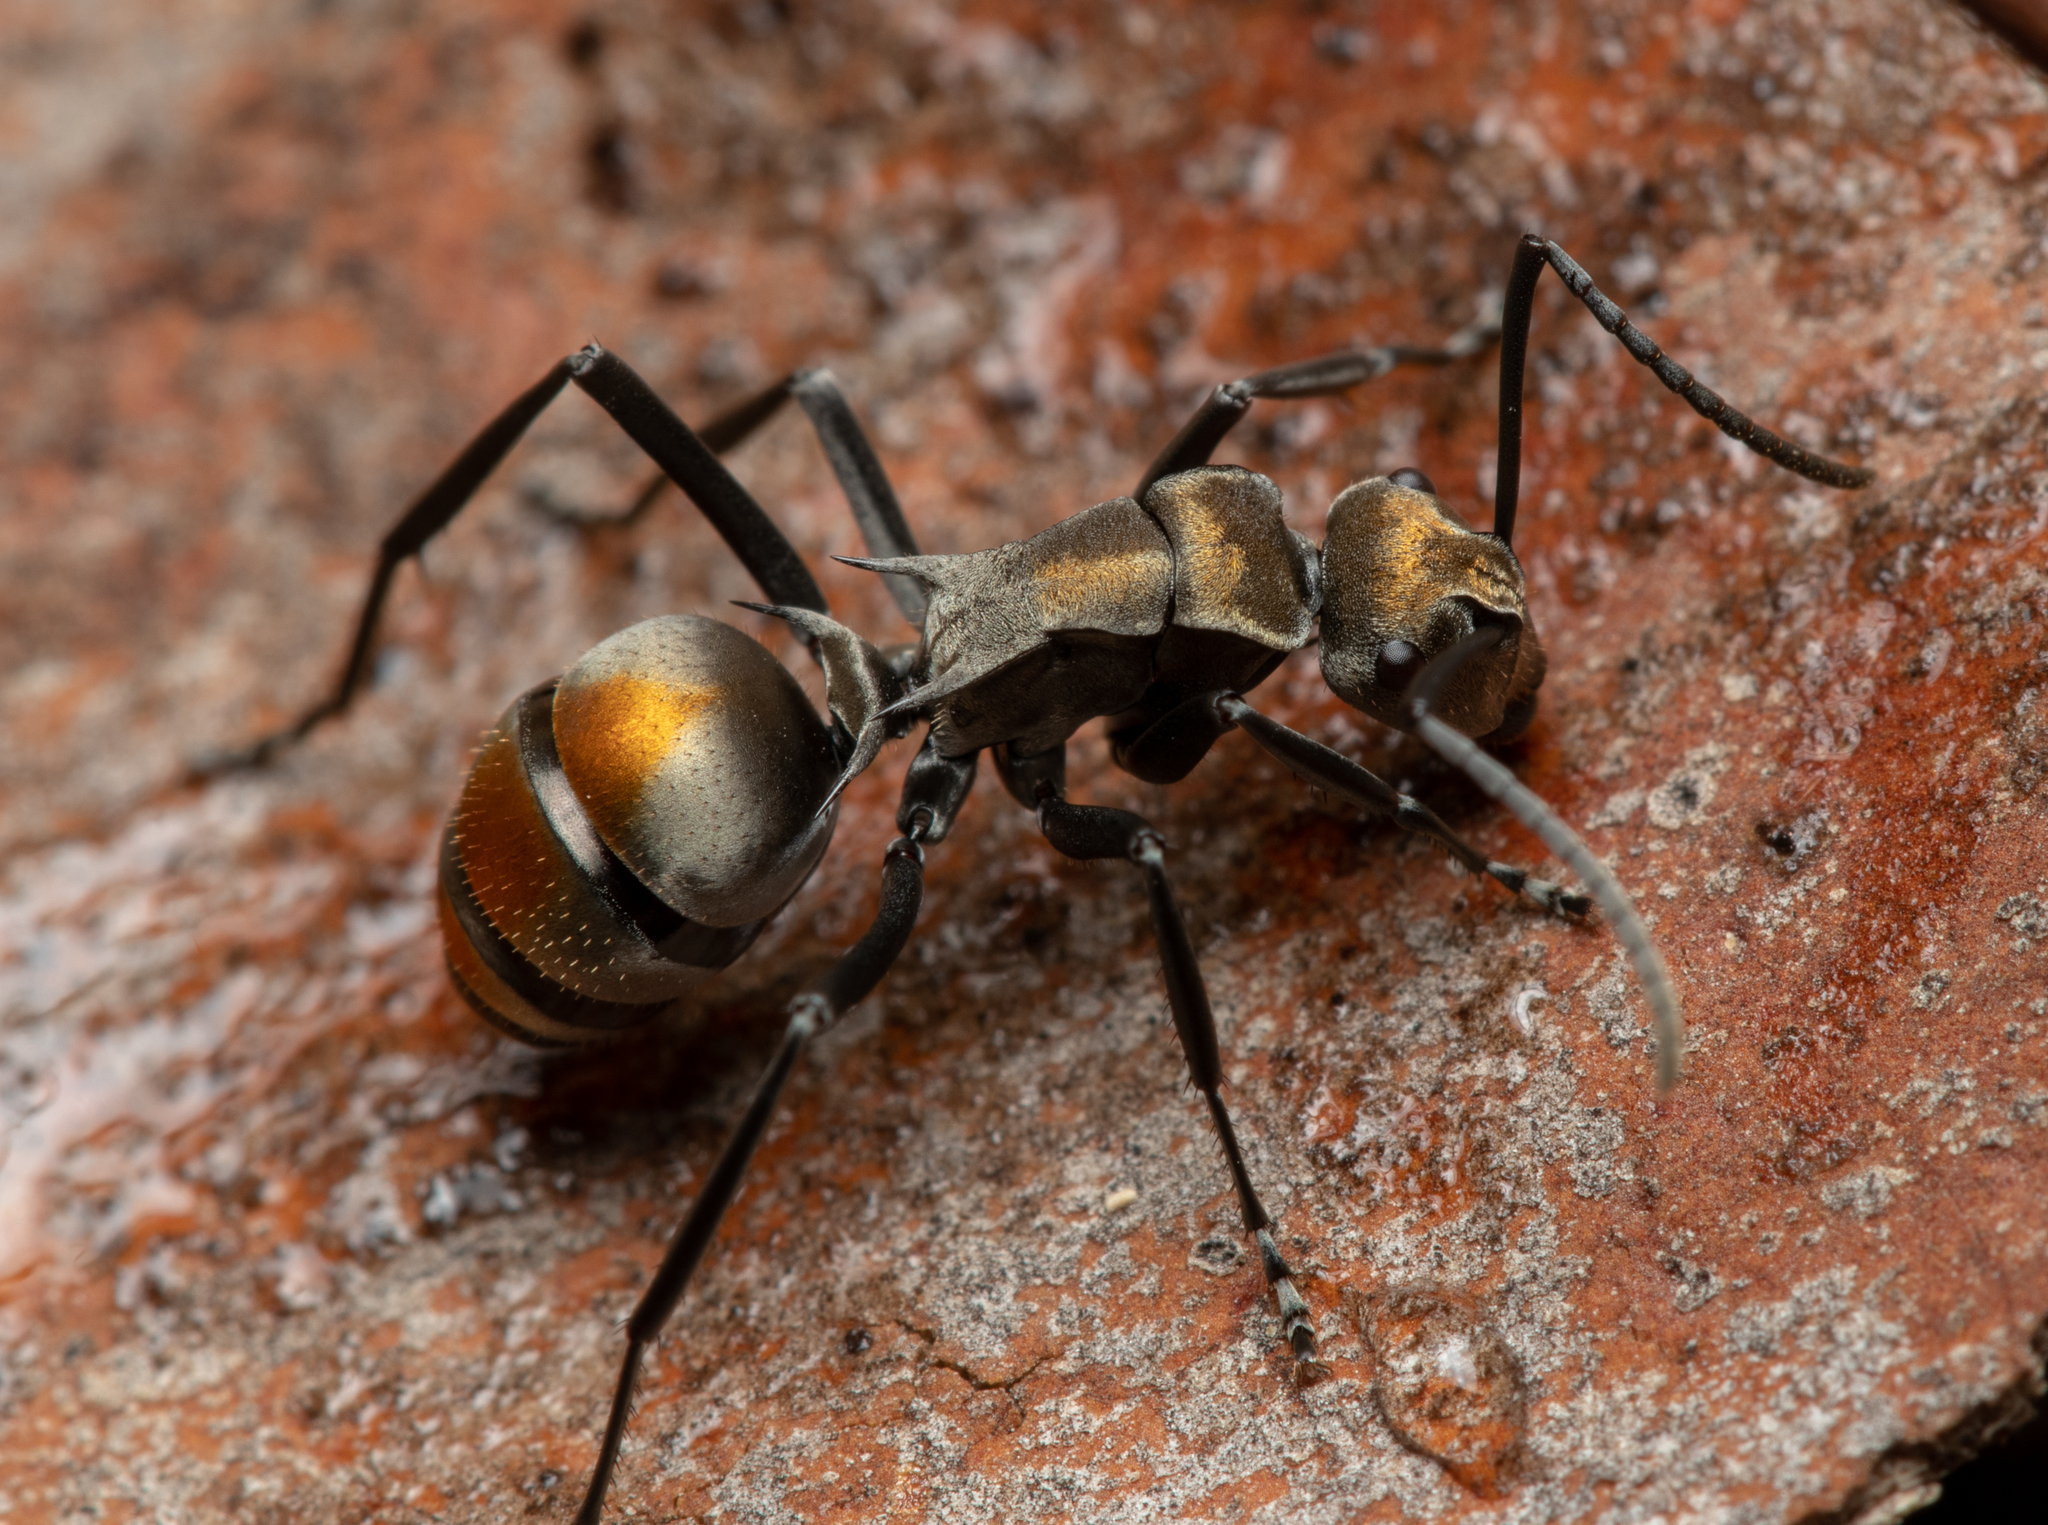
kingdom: Animalia
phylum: Arthropoda
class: Insecta
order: Hymenoptera
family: Formicidae
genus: Polyrhachis
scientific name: Polyrhachis trapezoidea
